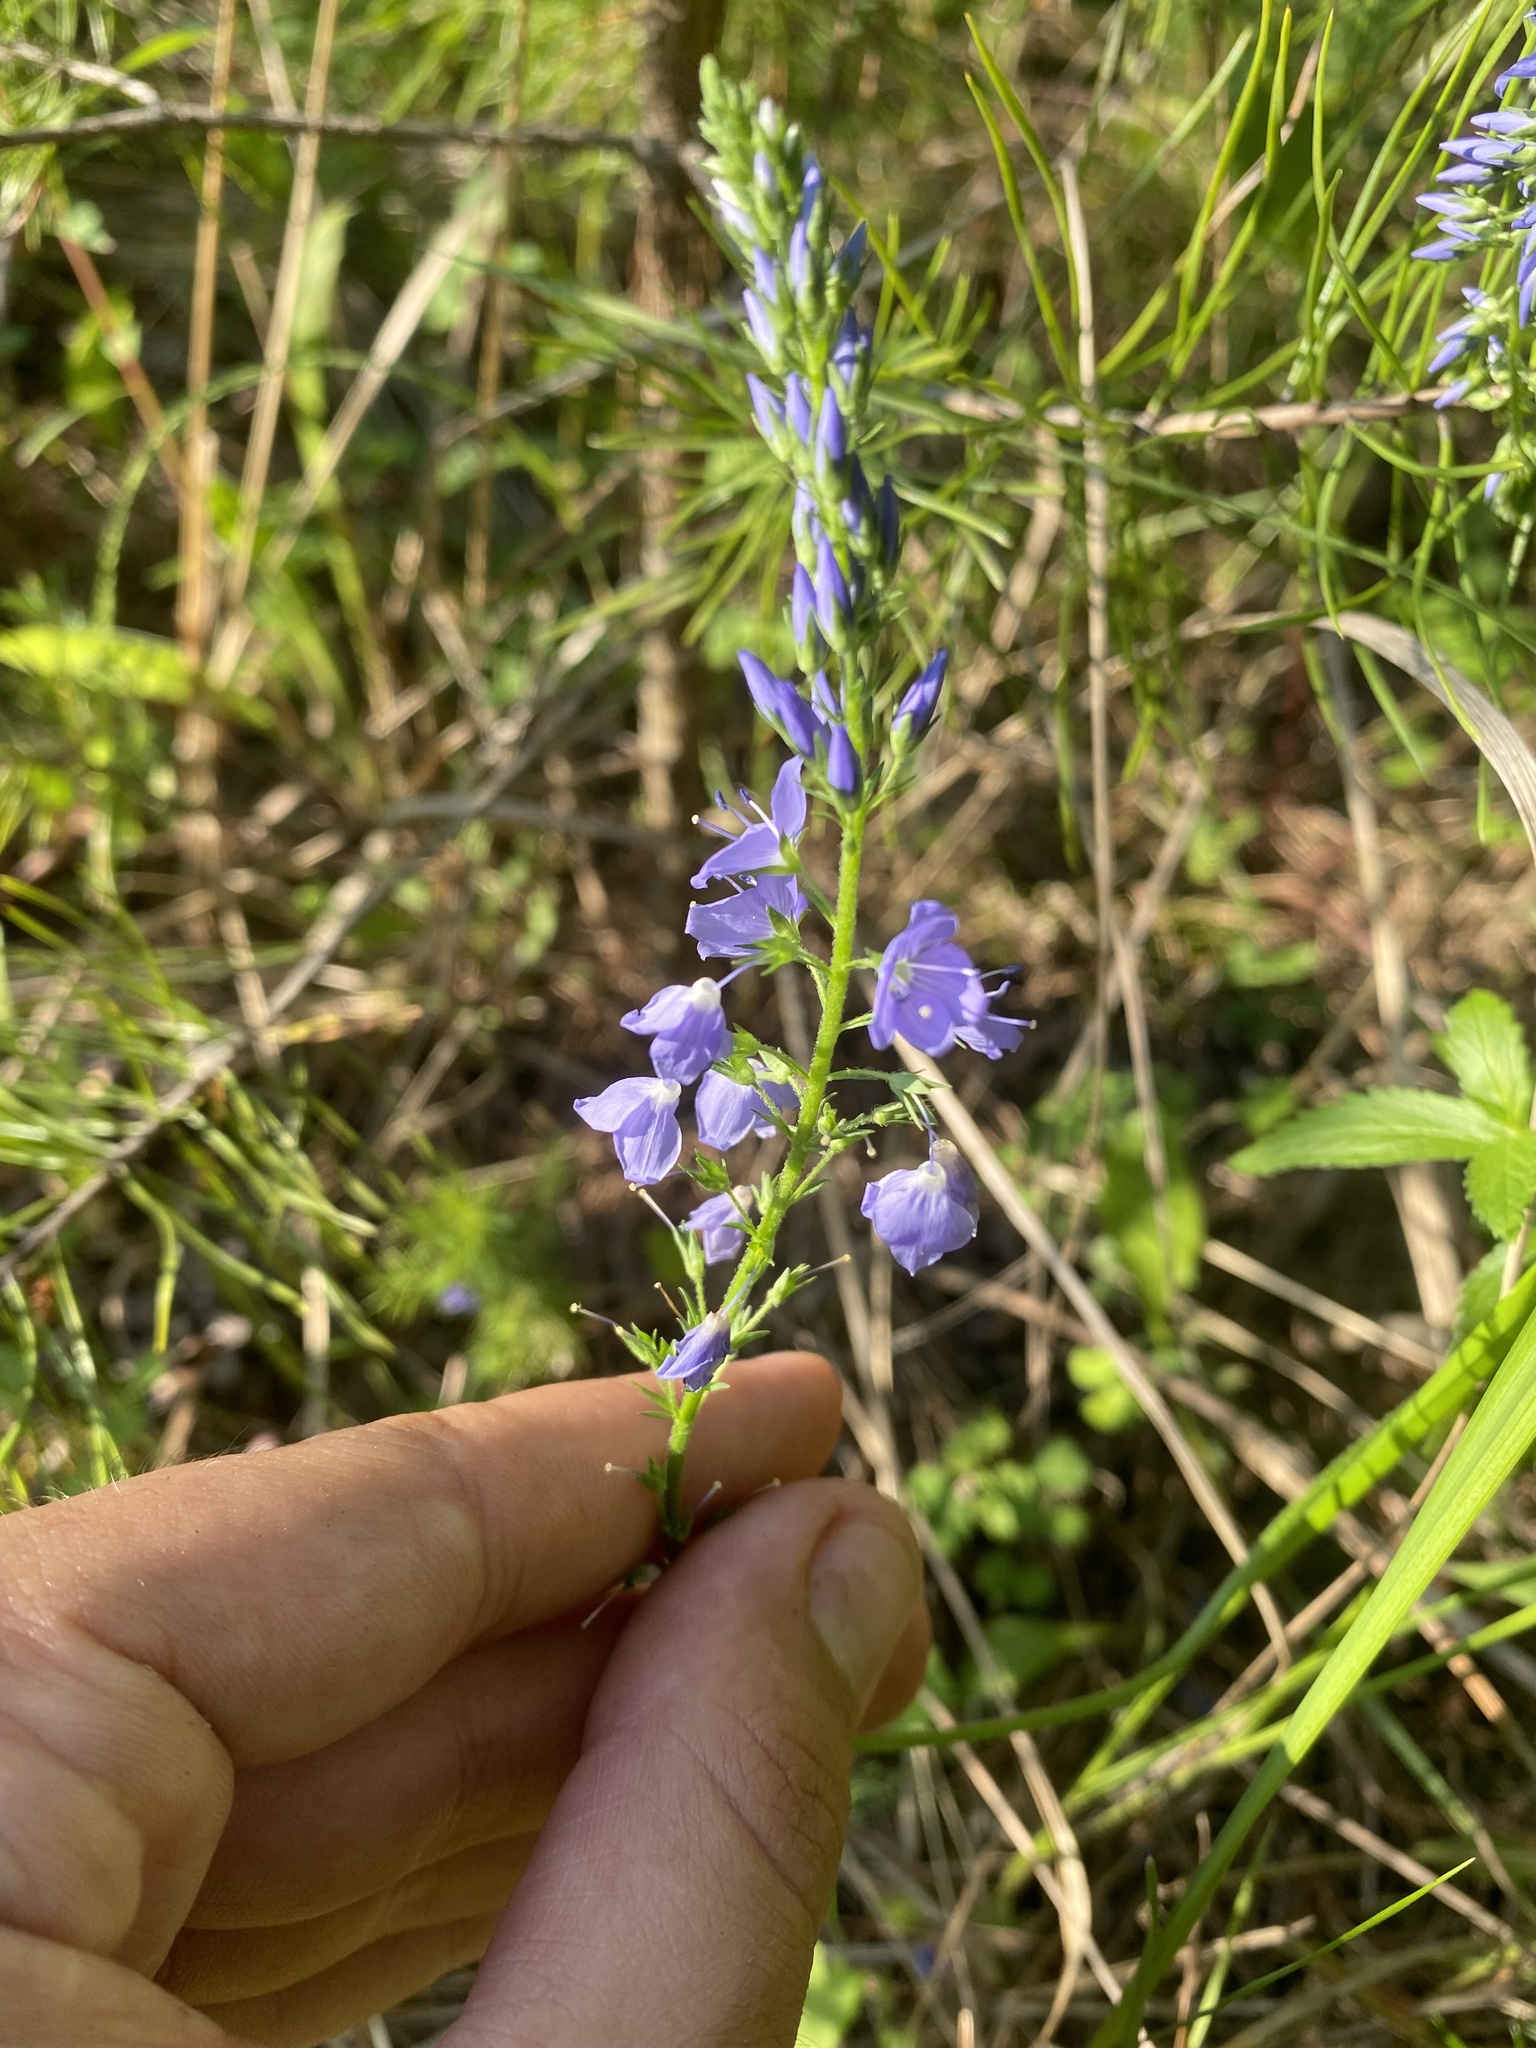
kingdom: Plantae
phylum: Tracheophyta
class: Magnoliopsida
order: Lamiales
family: Plantaginaceae
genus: Veronica
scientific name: Veronica teucrium
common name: Large speedwell
